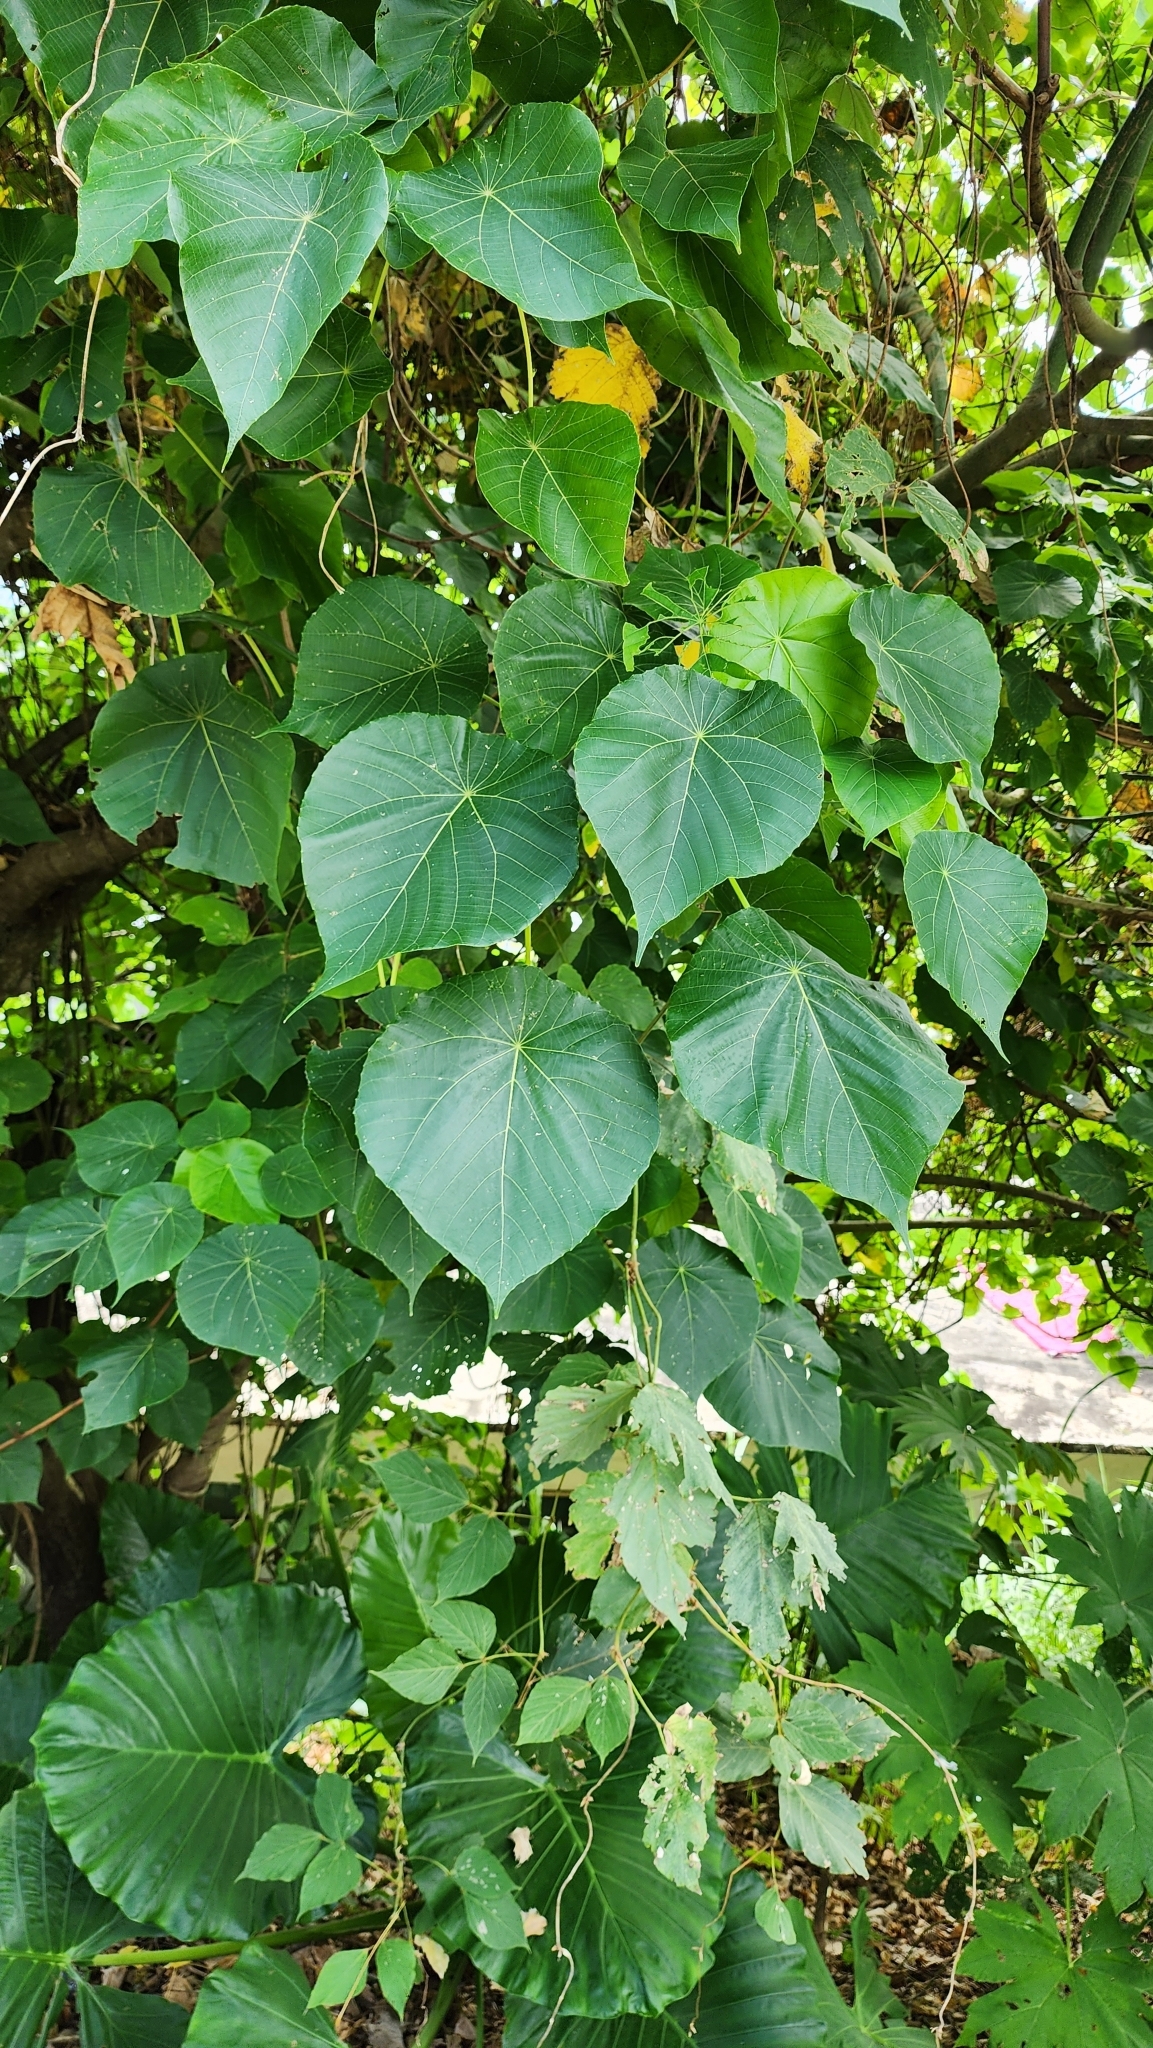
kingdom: Plantae
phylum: Tracheophyta
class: Magnoliopsida
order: Malpighiales
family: Euphorbiaceae
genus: Macaranga
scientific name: Macaranga tanarius
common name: Parasol leaf tree
